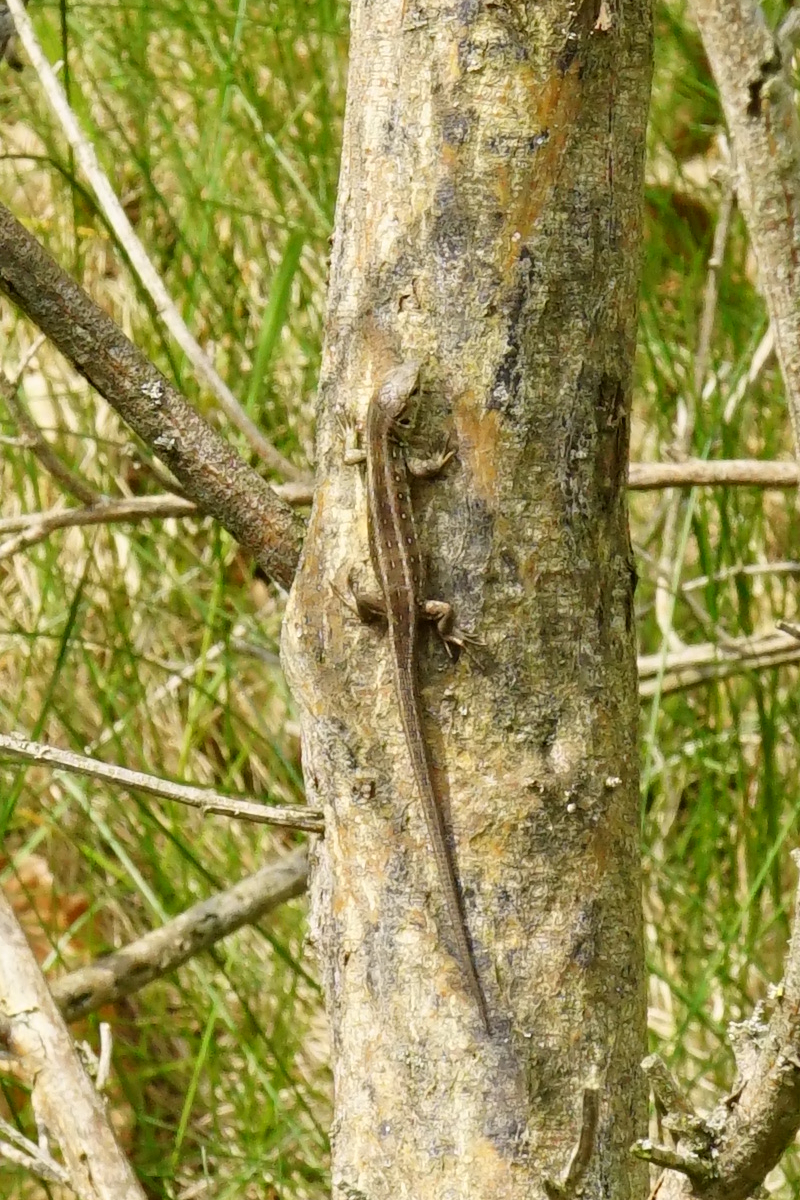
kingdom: Animalia
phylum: Chordata
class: Squamata
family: Lacertidae
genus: Lacerta
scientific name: Lacerta agilis
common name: Sand lizard
